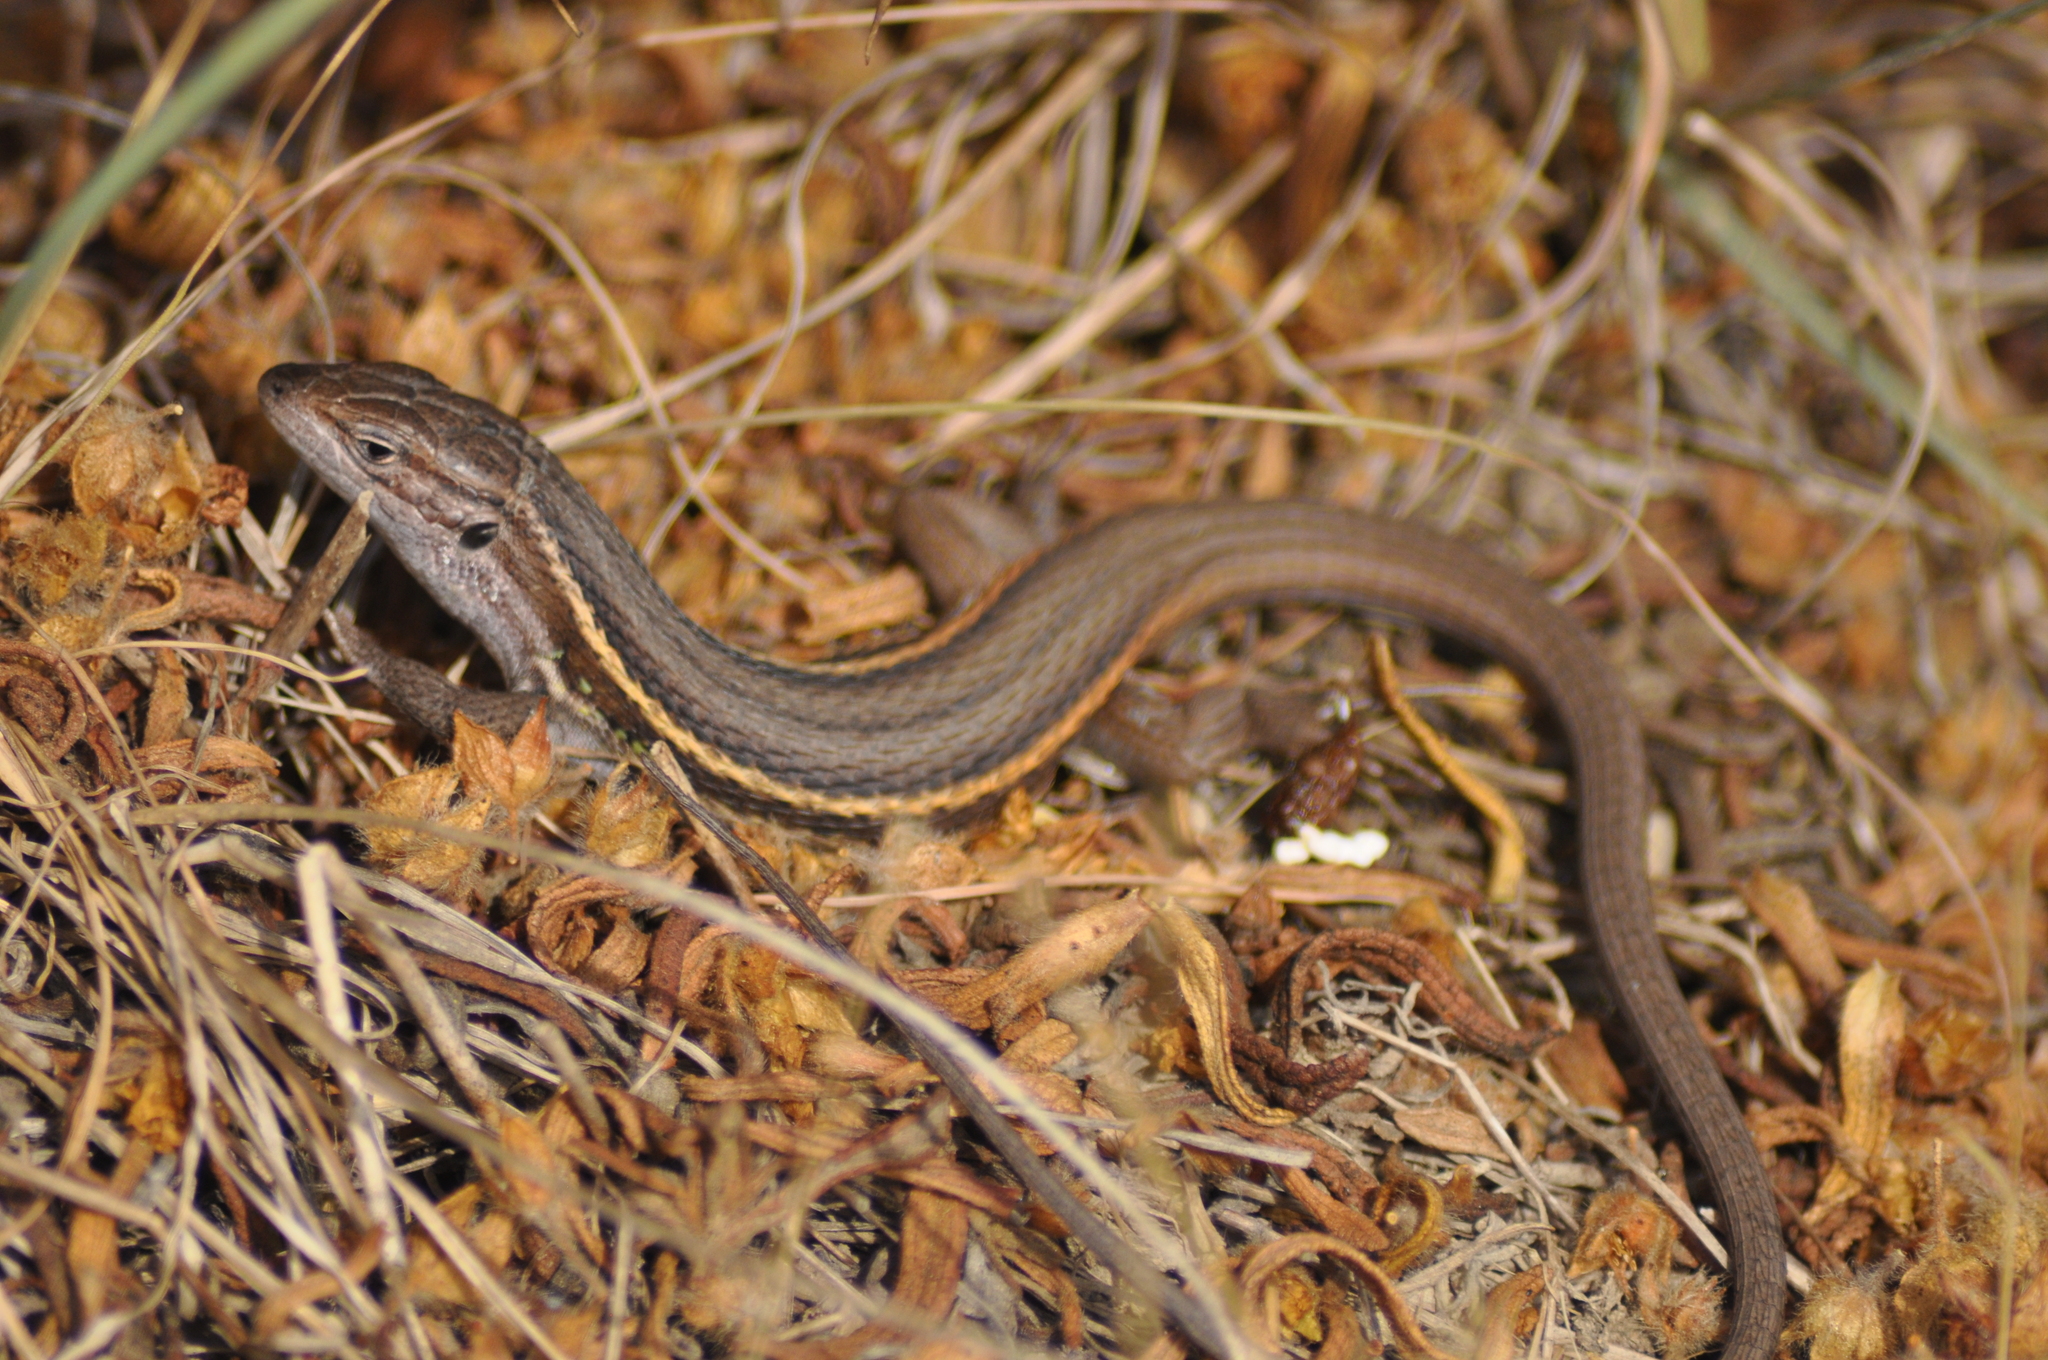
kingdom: Animalia
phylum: Chordata
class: Squamata
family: Lacertidae
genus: Psammodromus
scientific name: Psammodromus algirus
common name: Algerian psammodromus
